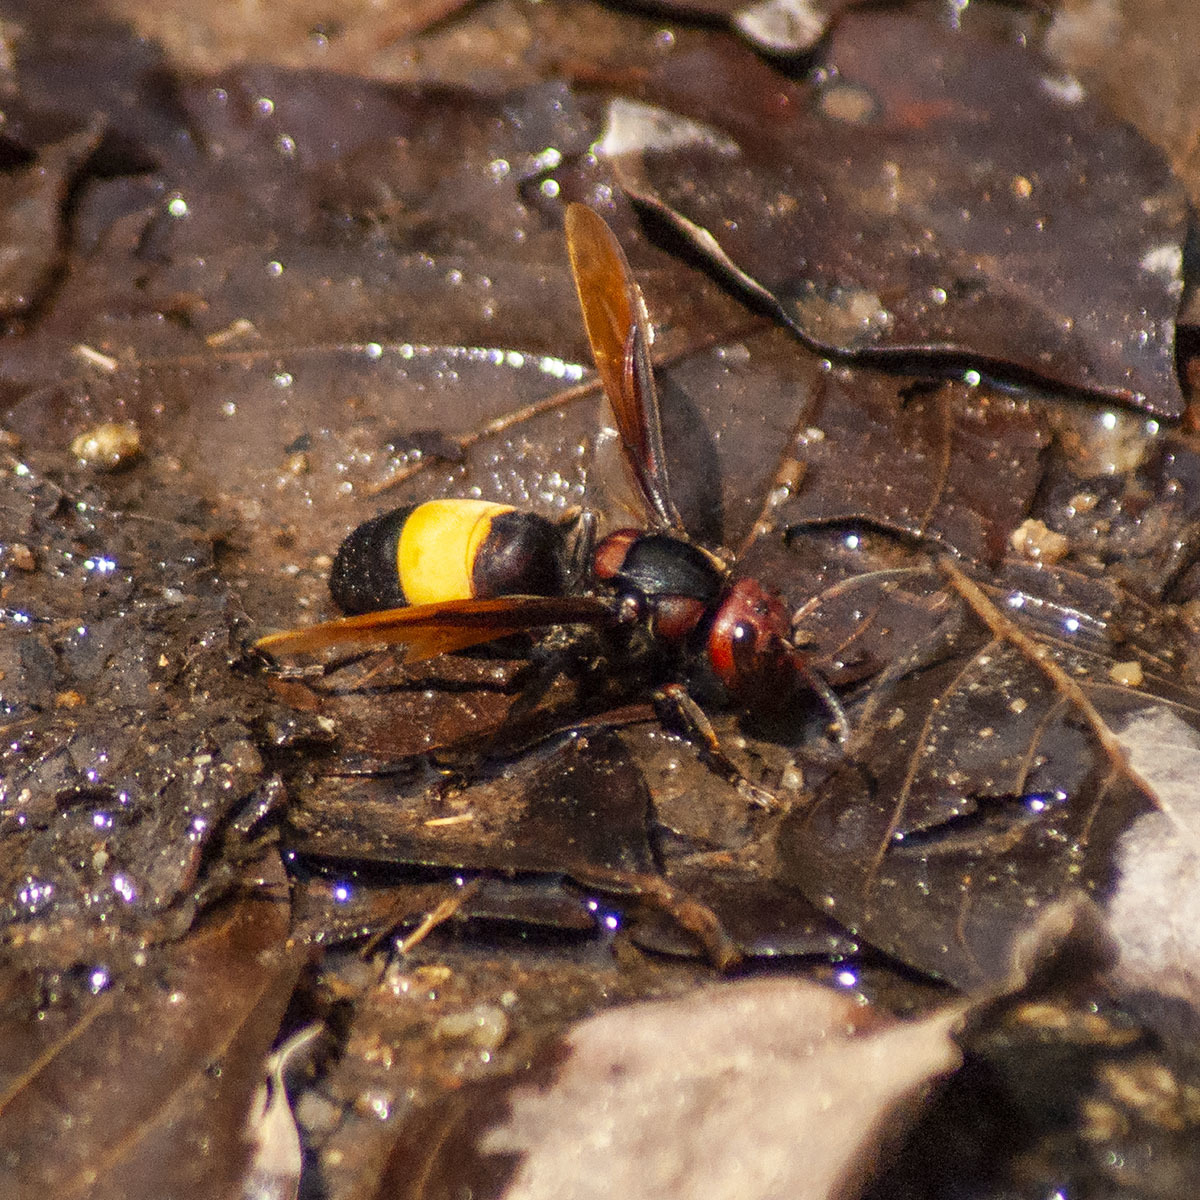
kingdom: Animalia
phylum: Arthropoda
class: Insecta
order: Hymenoptera
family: Vespidae
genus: Vespa
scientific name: Vespa tropica
